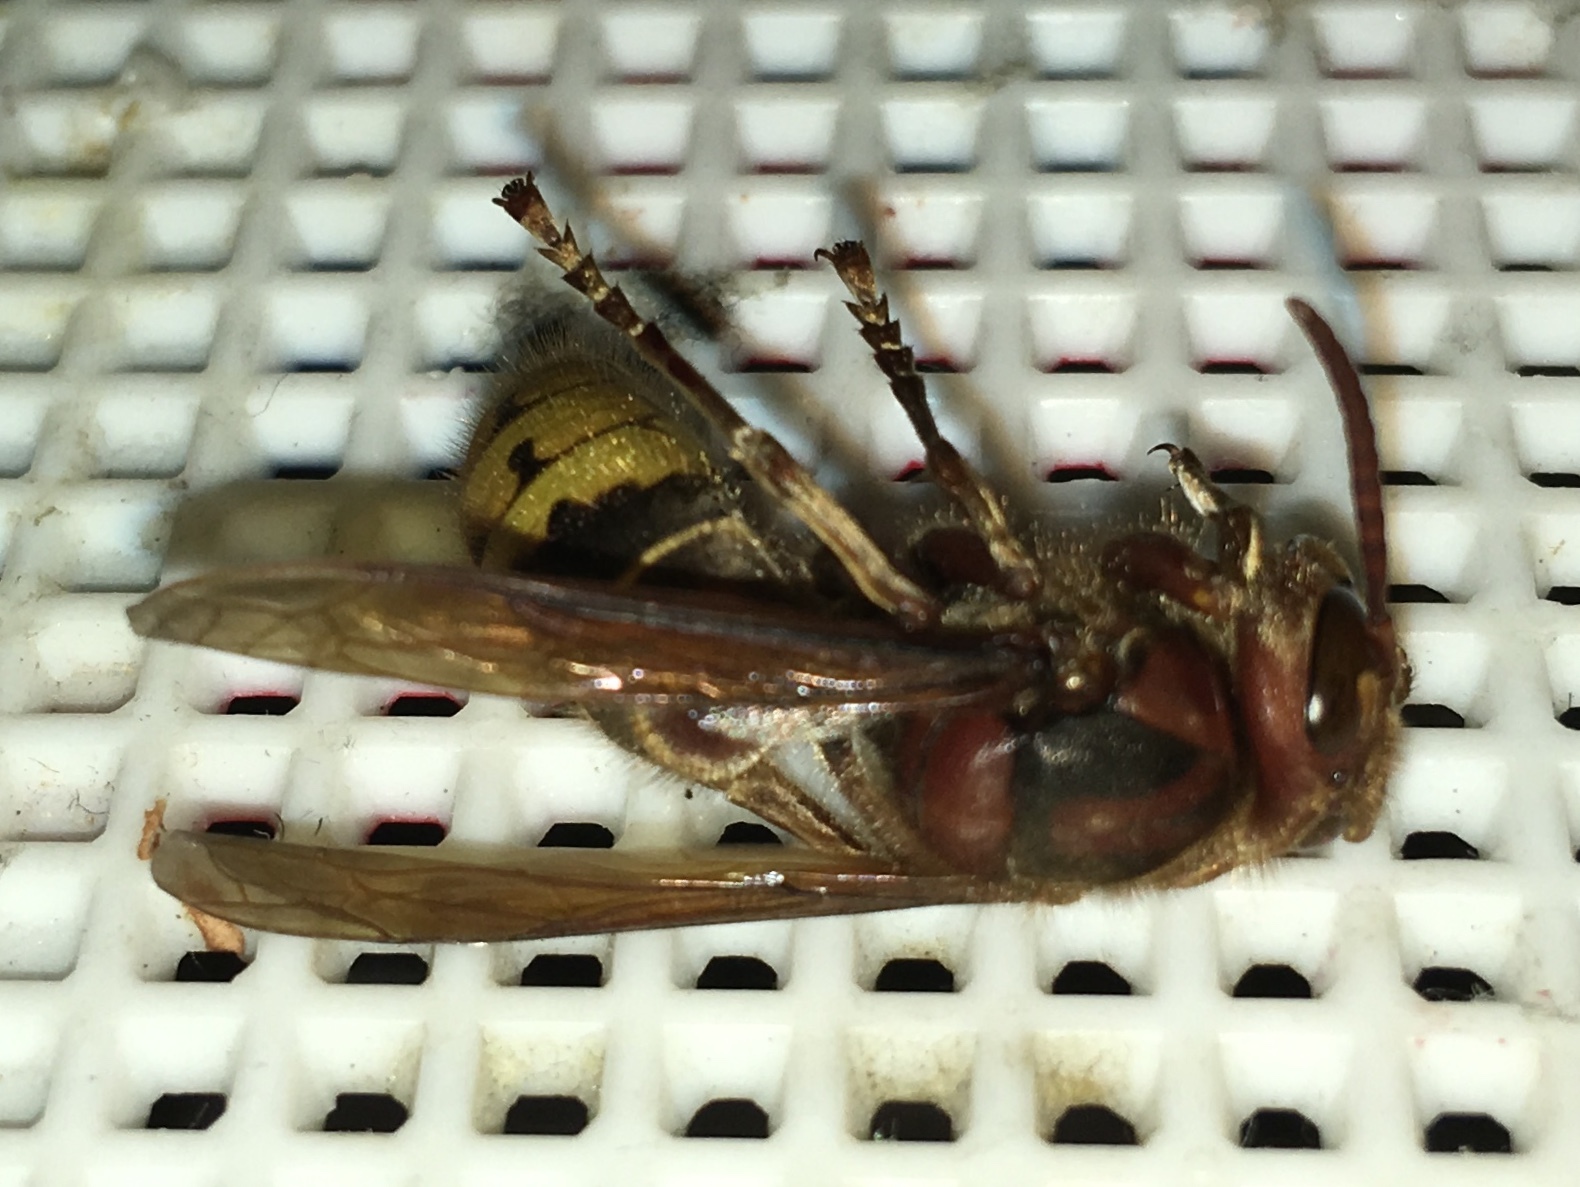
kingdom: Animalia
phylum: Arthropoda
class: Insecta
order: Hymenoptera
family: Vespidae
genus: Vespa
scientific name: Vespa crabro
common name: Hornet
